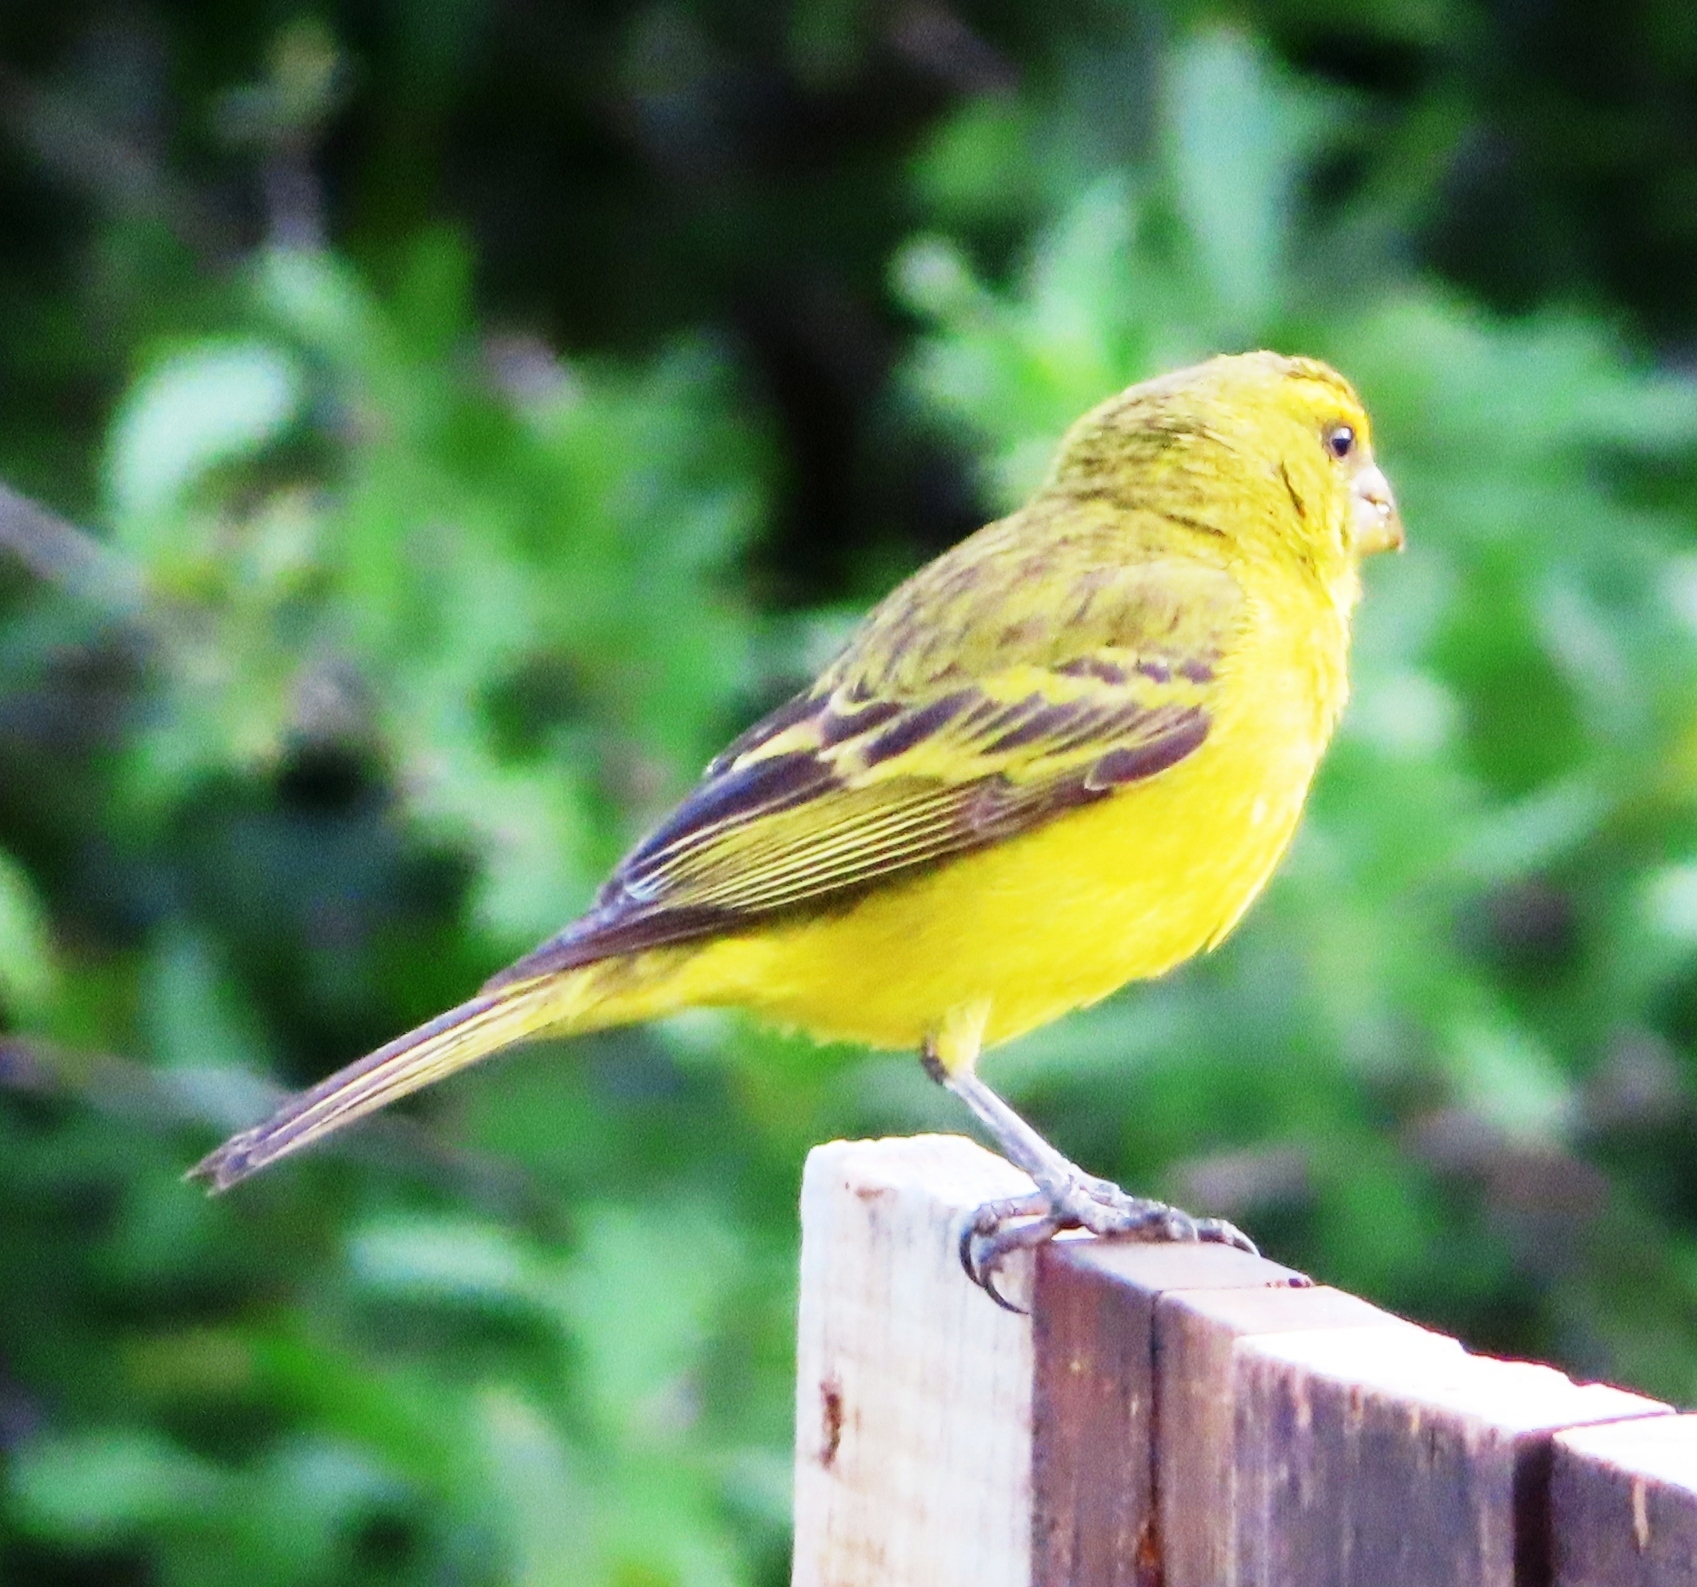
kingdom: Animalia
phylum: Chordata
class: Aves
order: Passeriformes
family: Fringillidae
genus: Crithagra
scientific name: Crithagra sulphurata
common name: Brimstone canary
